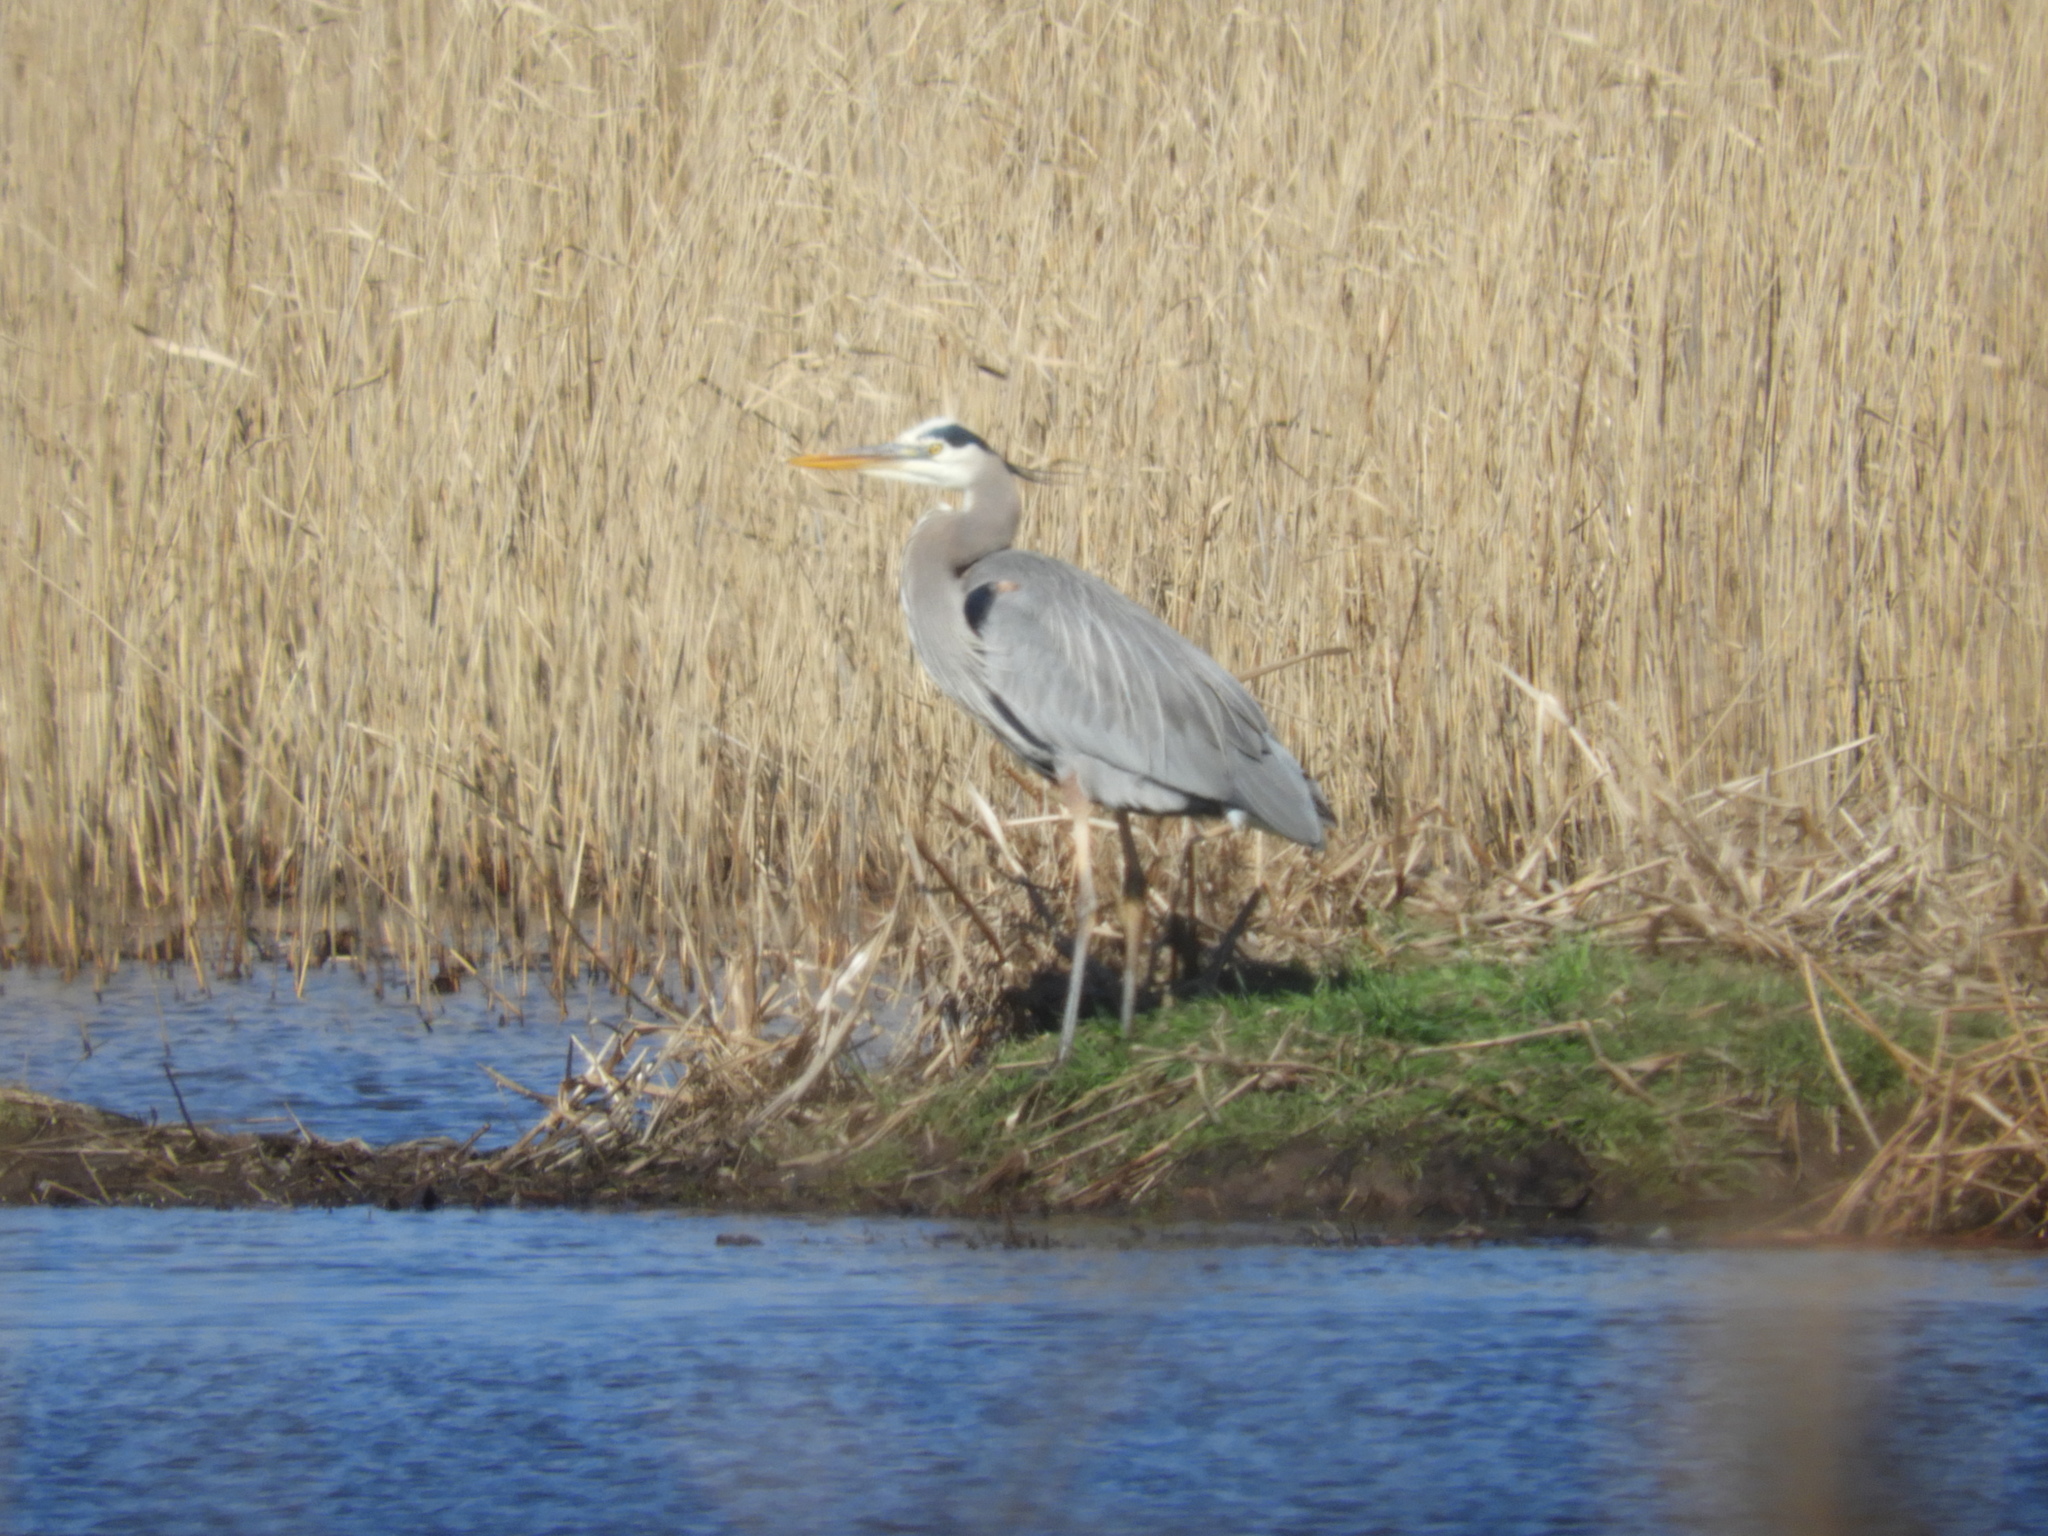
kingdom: Animalia
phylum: Chordata
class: Aves
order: Pelecaniformes
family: Ardeidae
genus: Ardea
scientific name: Ardea herodias
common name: Great blue heron
